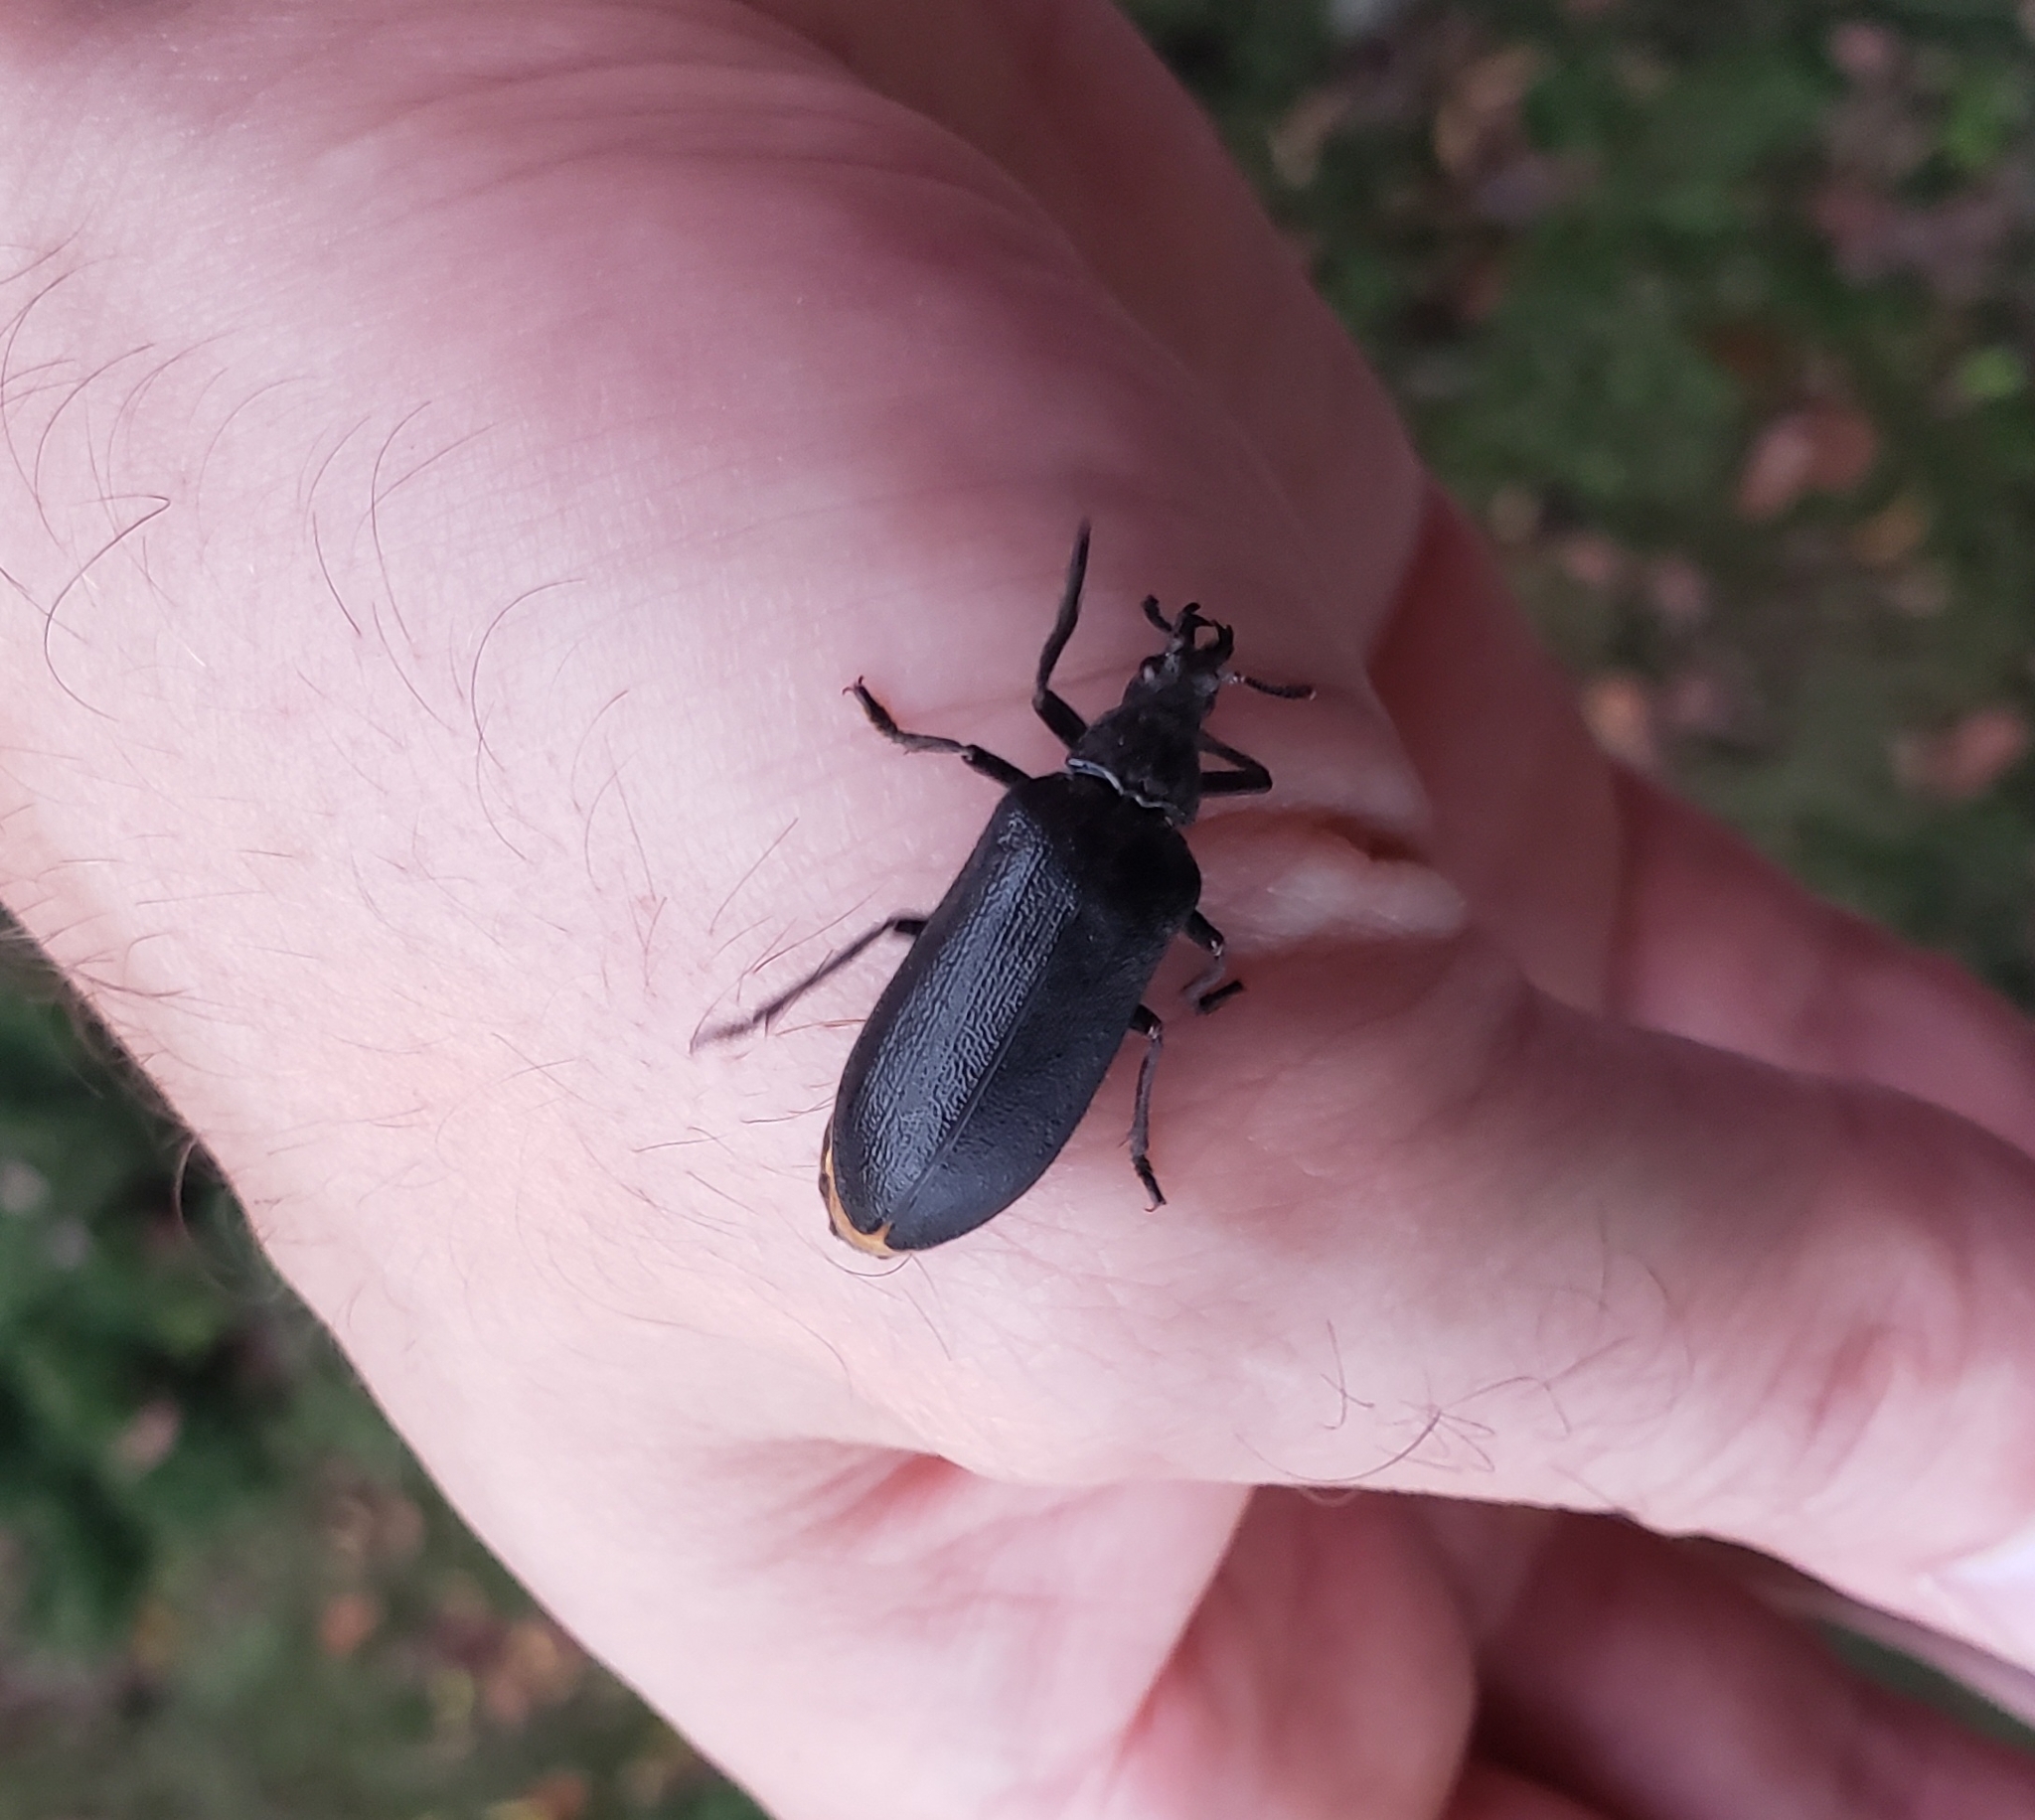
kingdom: Animalia
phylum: Arthropoda
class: Insecta
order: Coleoptera
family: Rhipiceridae
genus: Sandalus
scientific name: Sandalus niger
